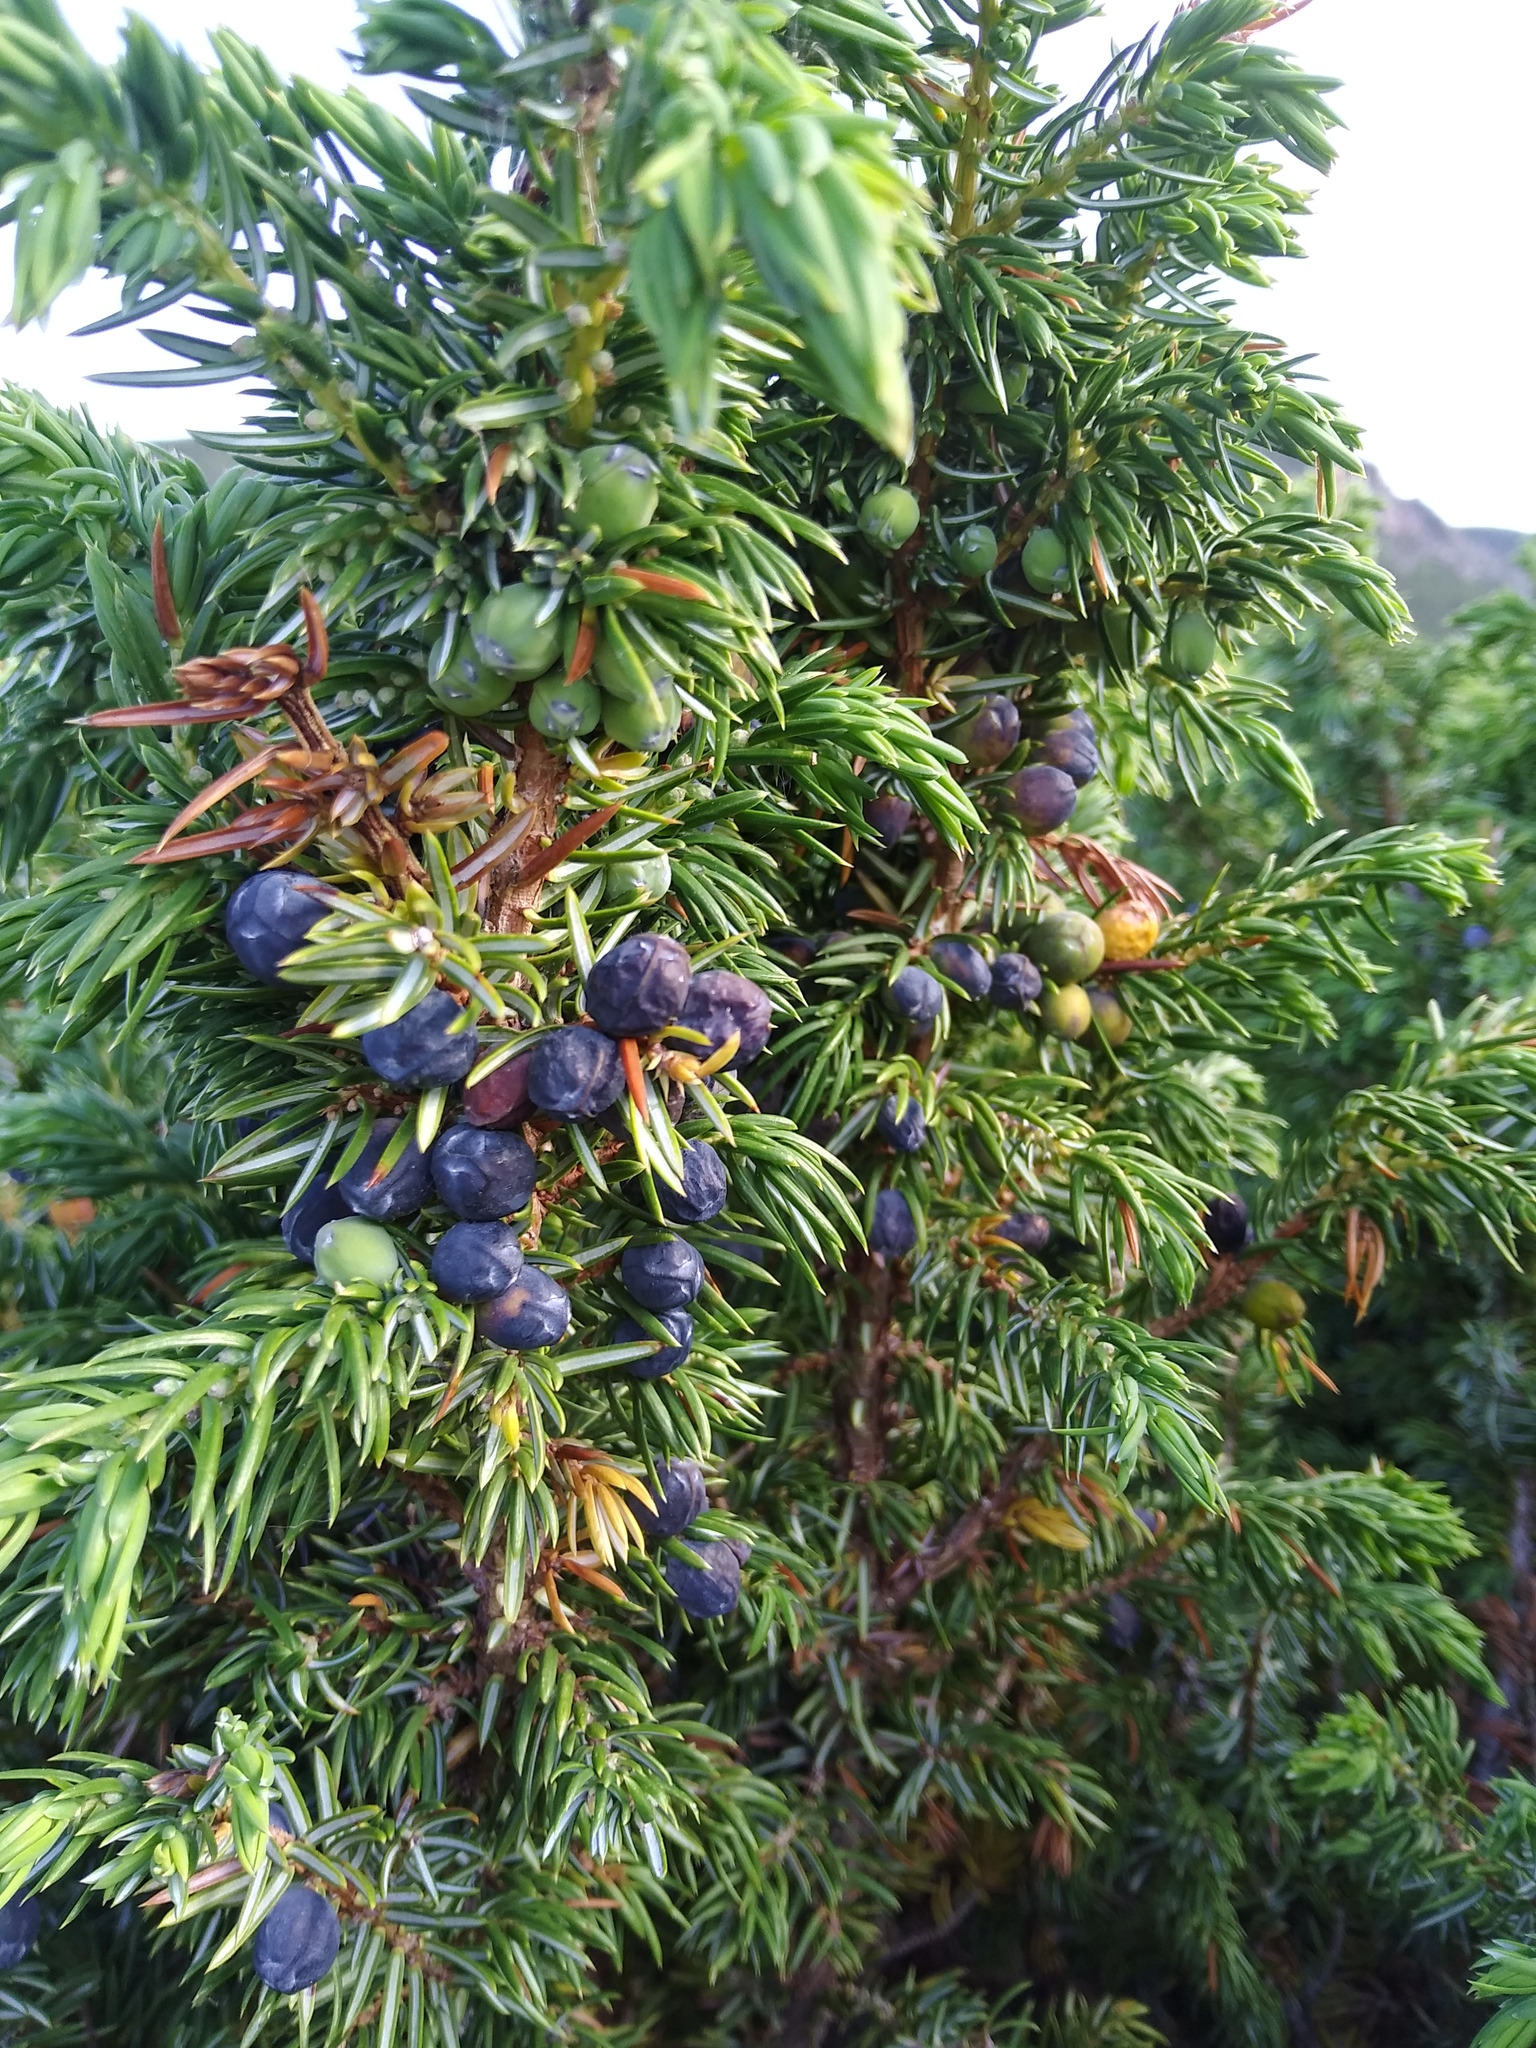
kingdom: Plantae
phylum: Tracheophyta
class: Pinopsida
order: Pinales
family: Cupressaceae
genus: Juniperus
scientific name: Juniperus communis
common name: Common juniper
